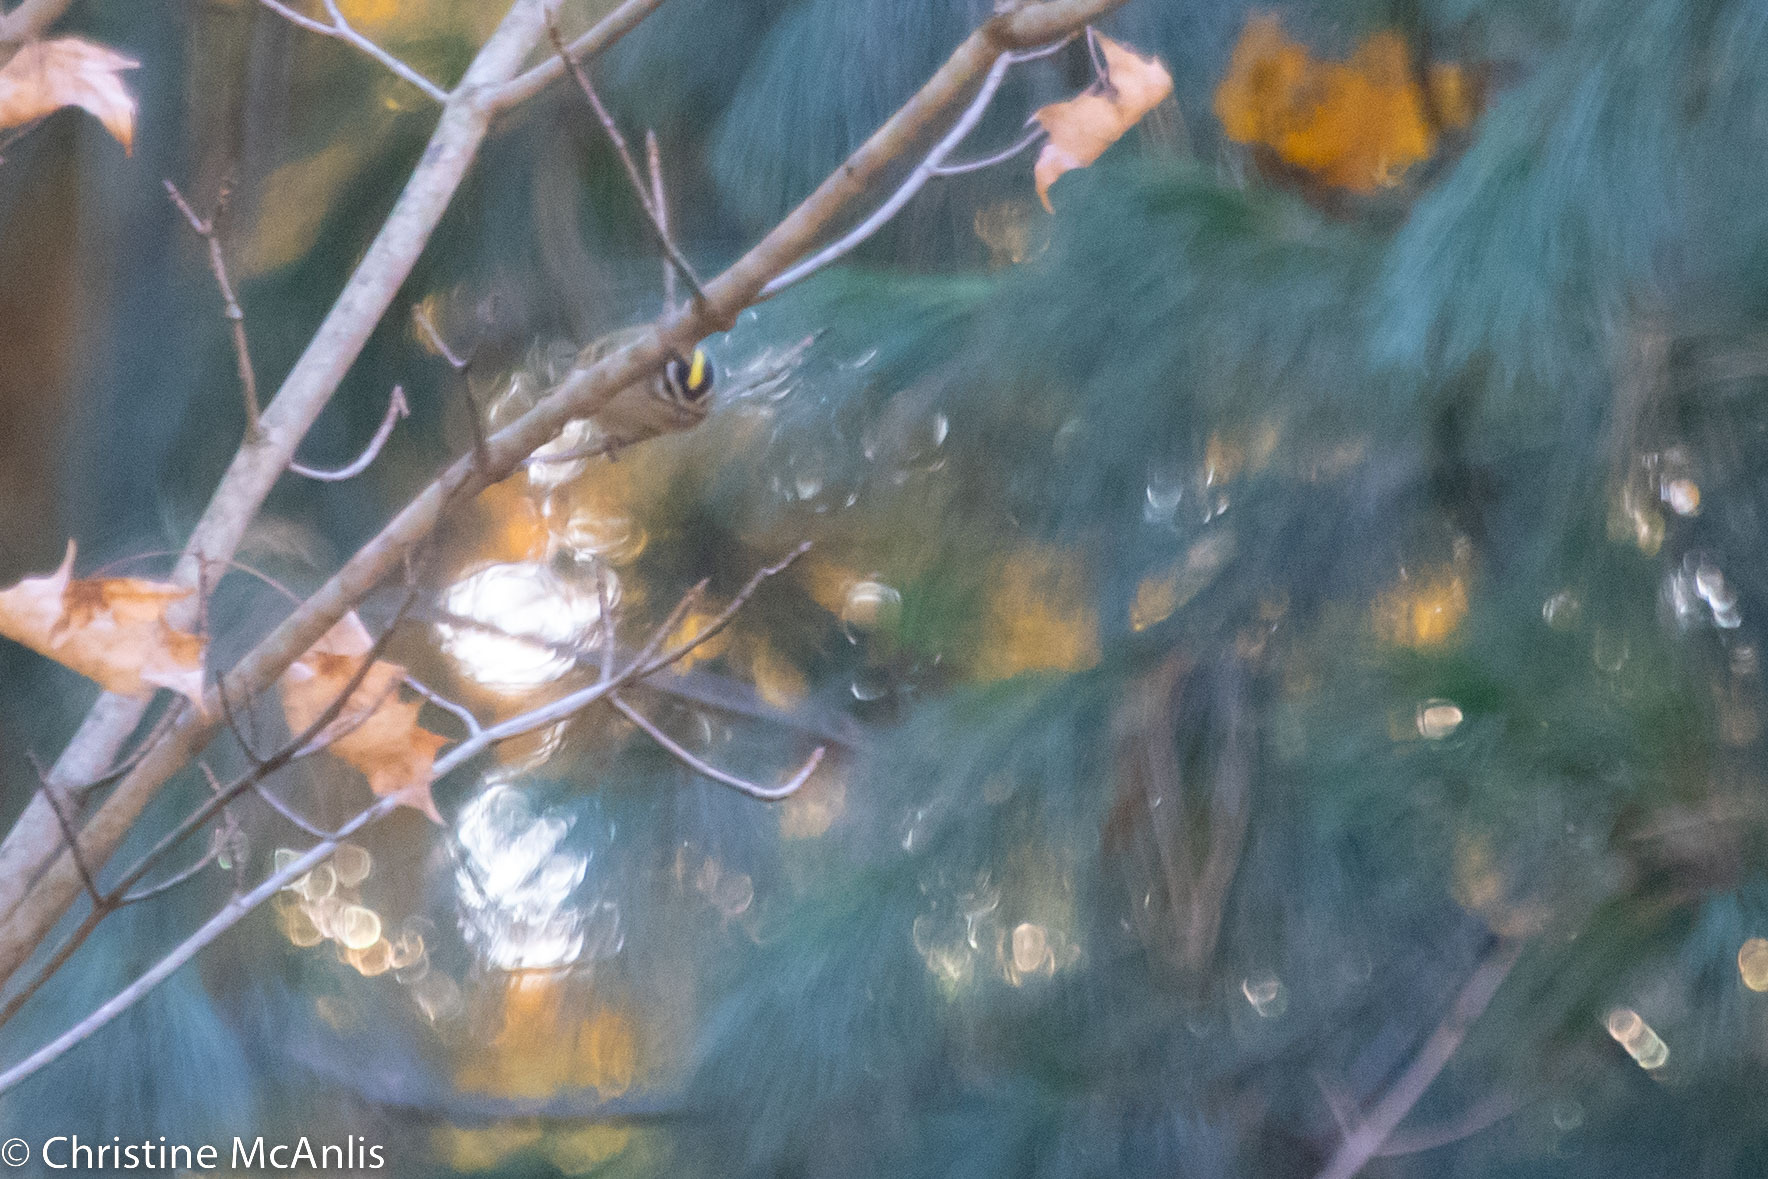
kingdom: Animalia
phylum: Chordata
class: Aves
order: Passeriformes
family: Regulidae
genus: Regulus
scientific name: Regulus satrapa
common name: Golden-crowned kinglet
